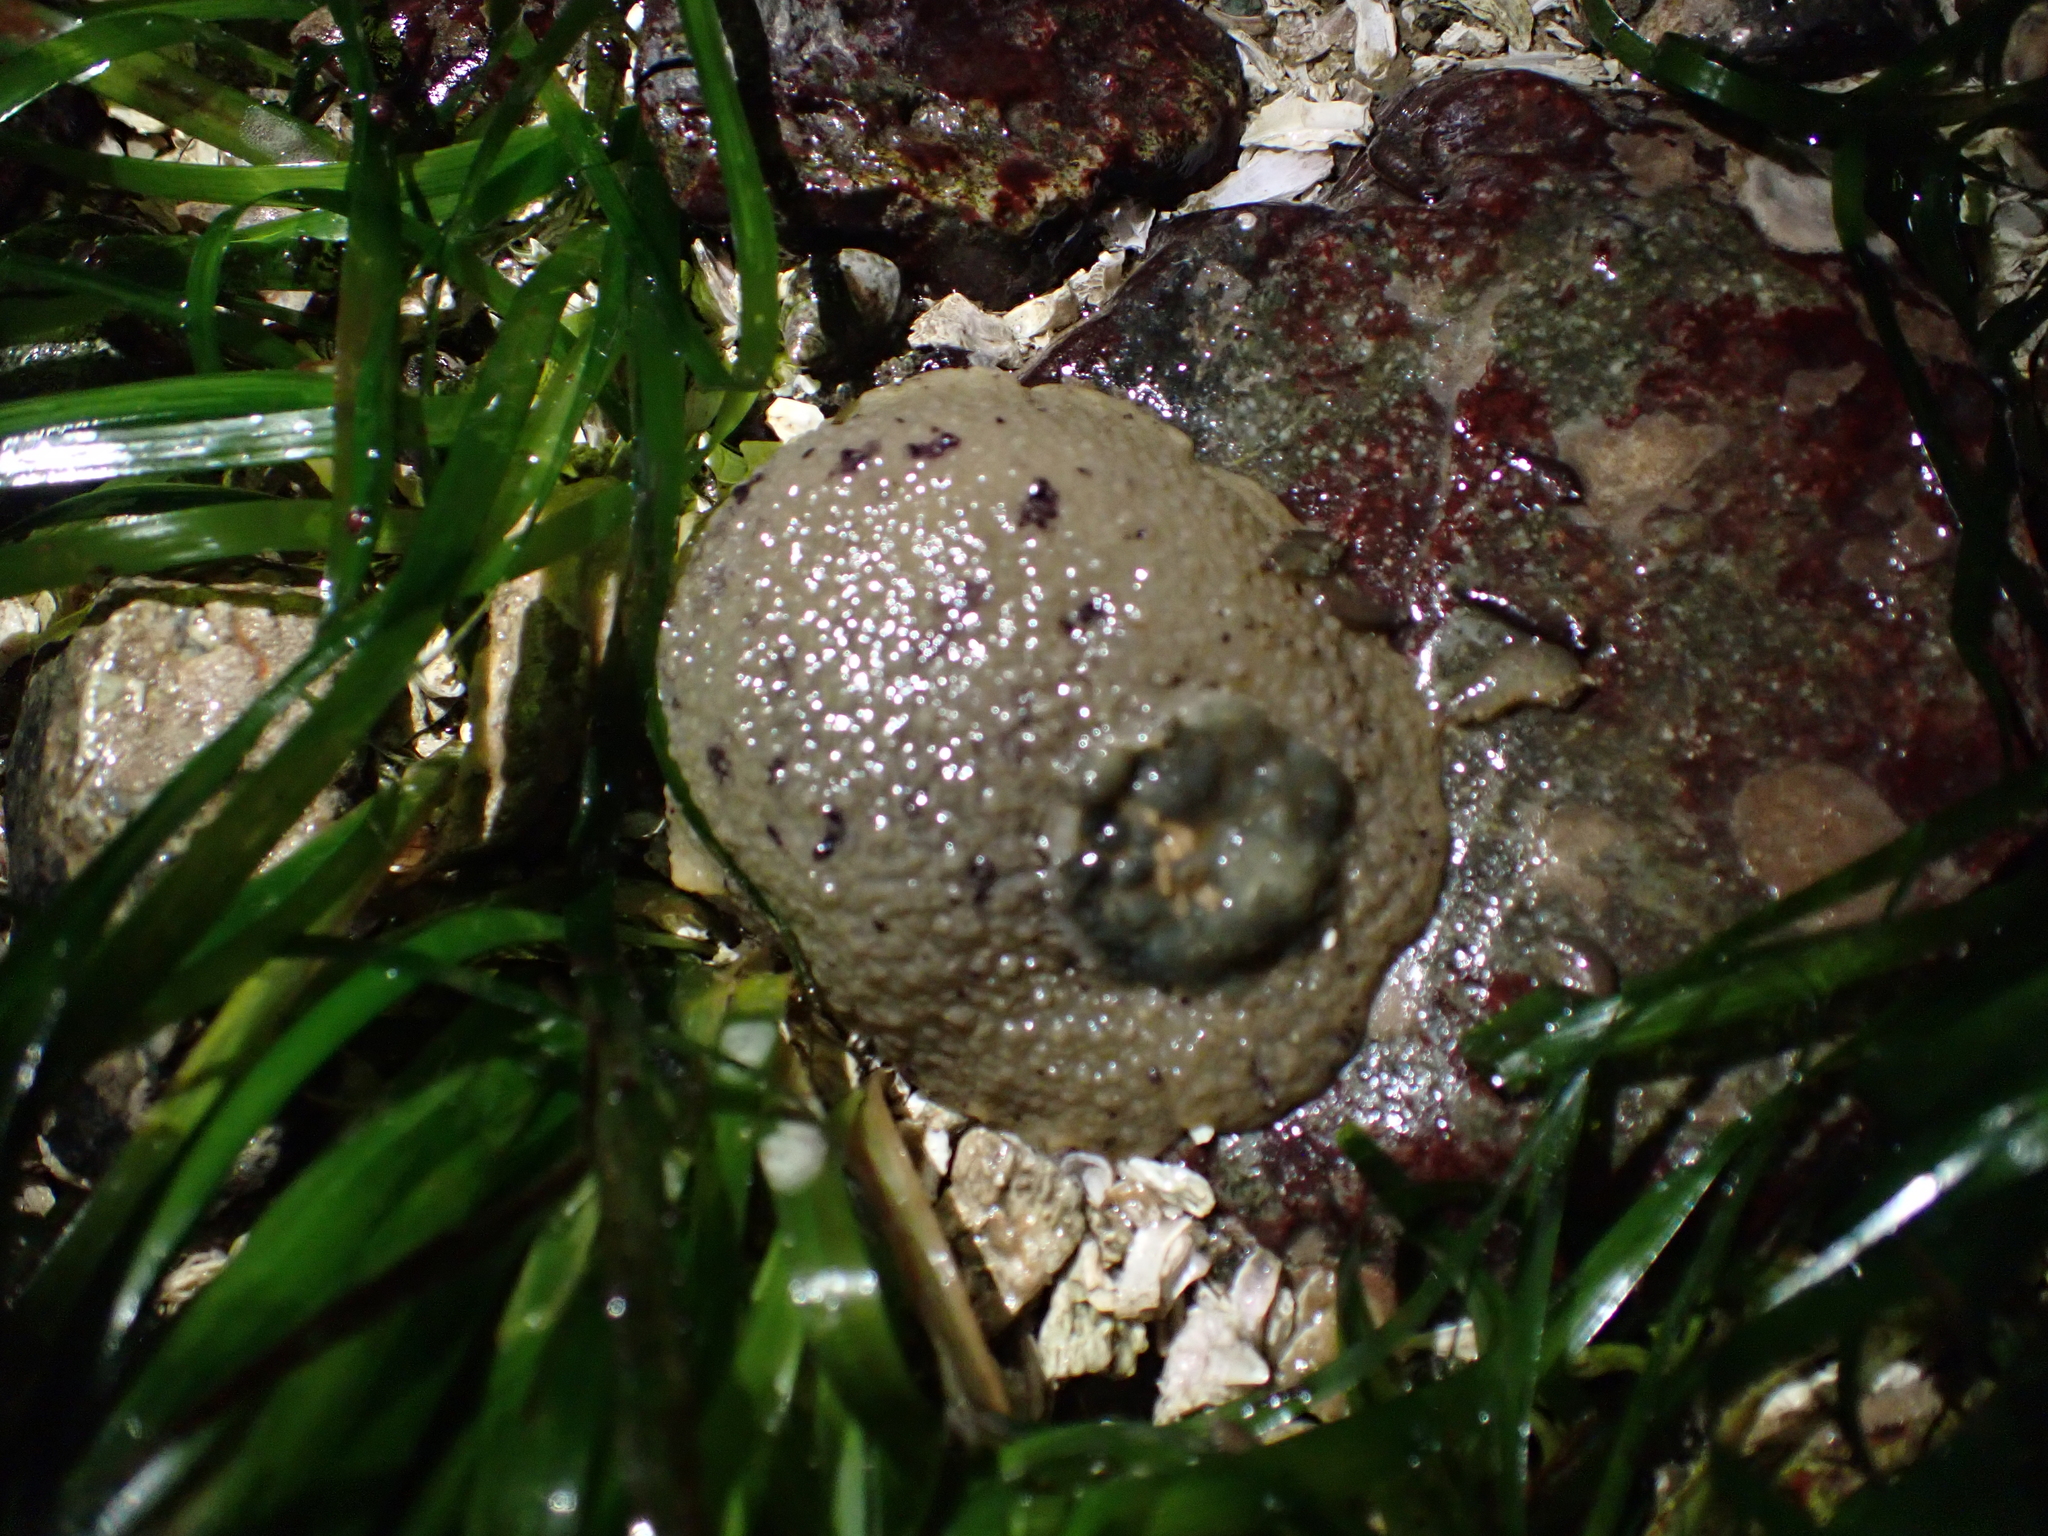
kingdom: Animalia
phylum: Mollusca
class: Gastropoda
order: Nudibranchia
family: Dorididae
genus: Doris
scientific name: Doris montereyensis
